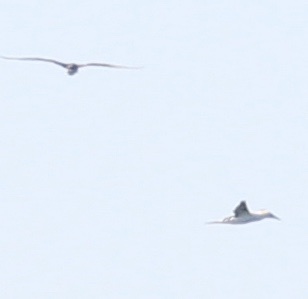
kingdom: Animalia
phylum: Chordata
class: Aves
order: Suliformes
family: Sulidae
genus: Morus
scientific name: Morus bassanus
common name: Northern gannet
